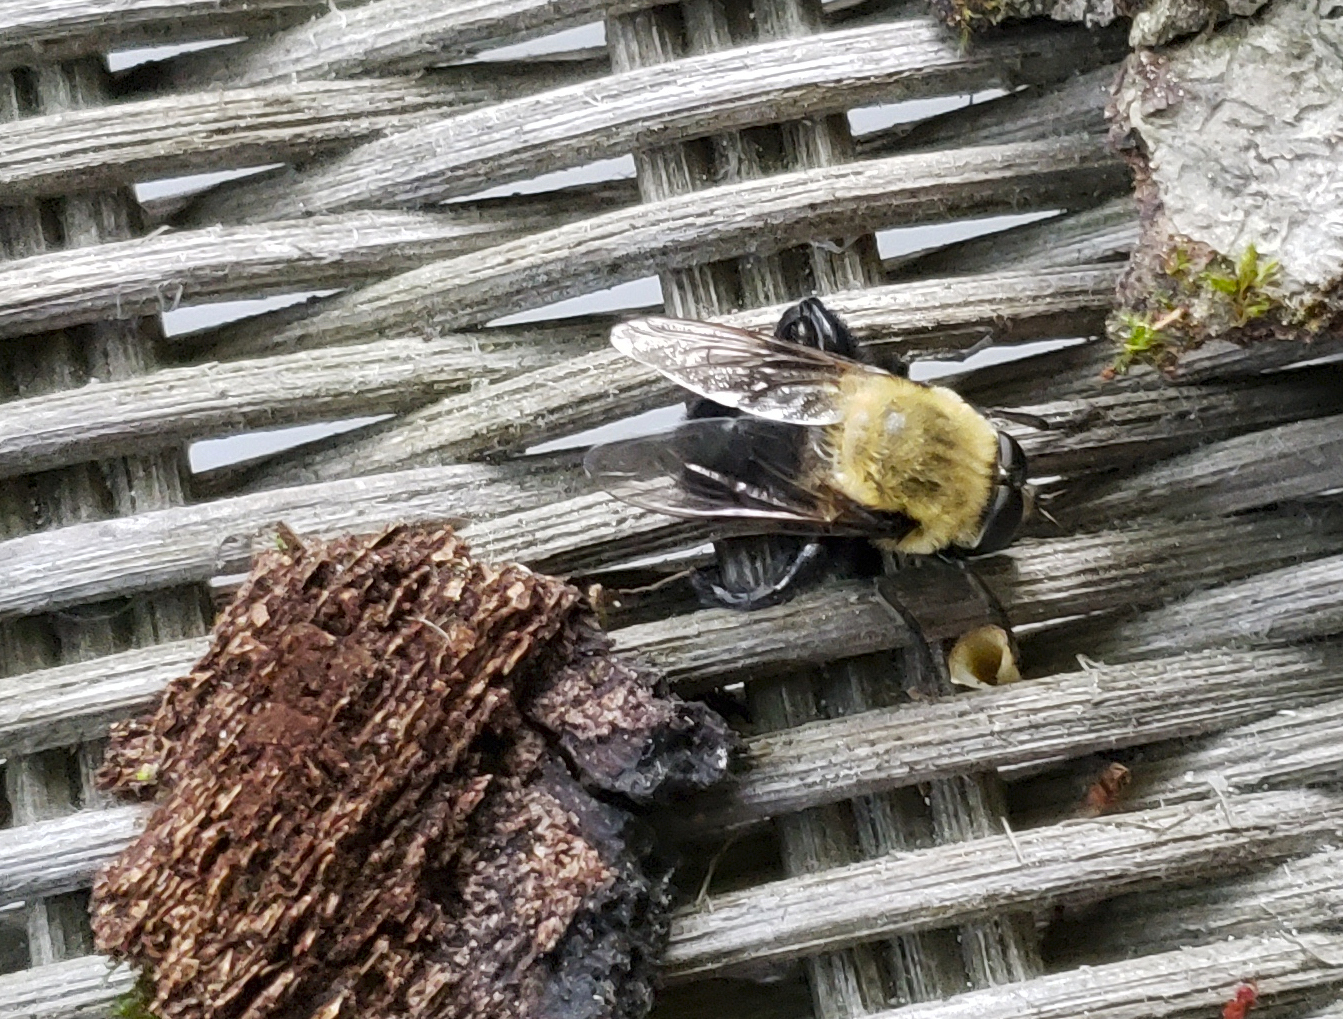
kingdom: Animalia
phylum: Arthropoda
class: Insecta
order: Diptera
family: Syrphidae
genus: Imatisma
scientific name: Imatisma bautias
